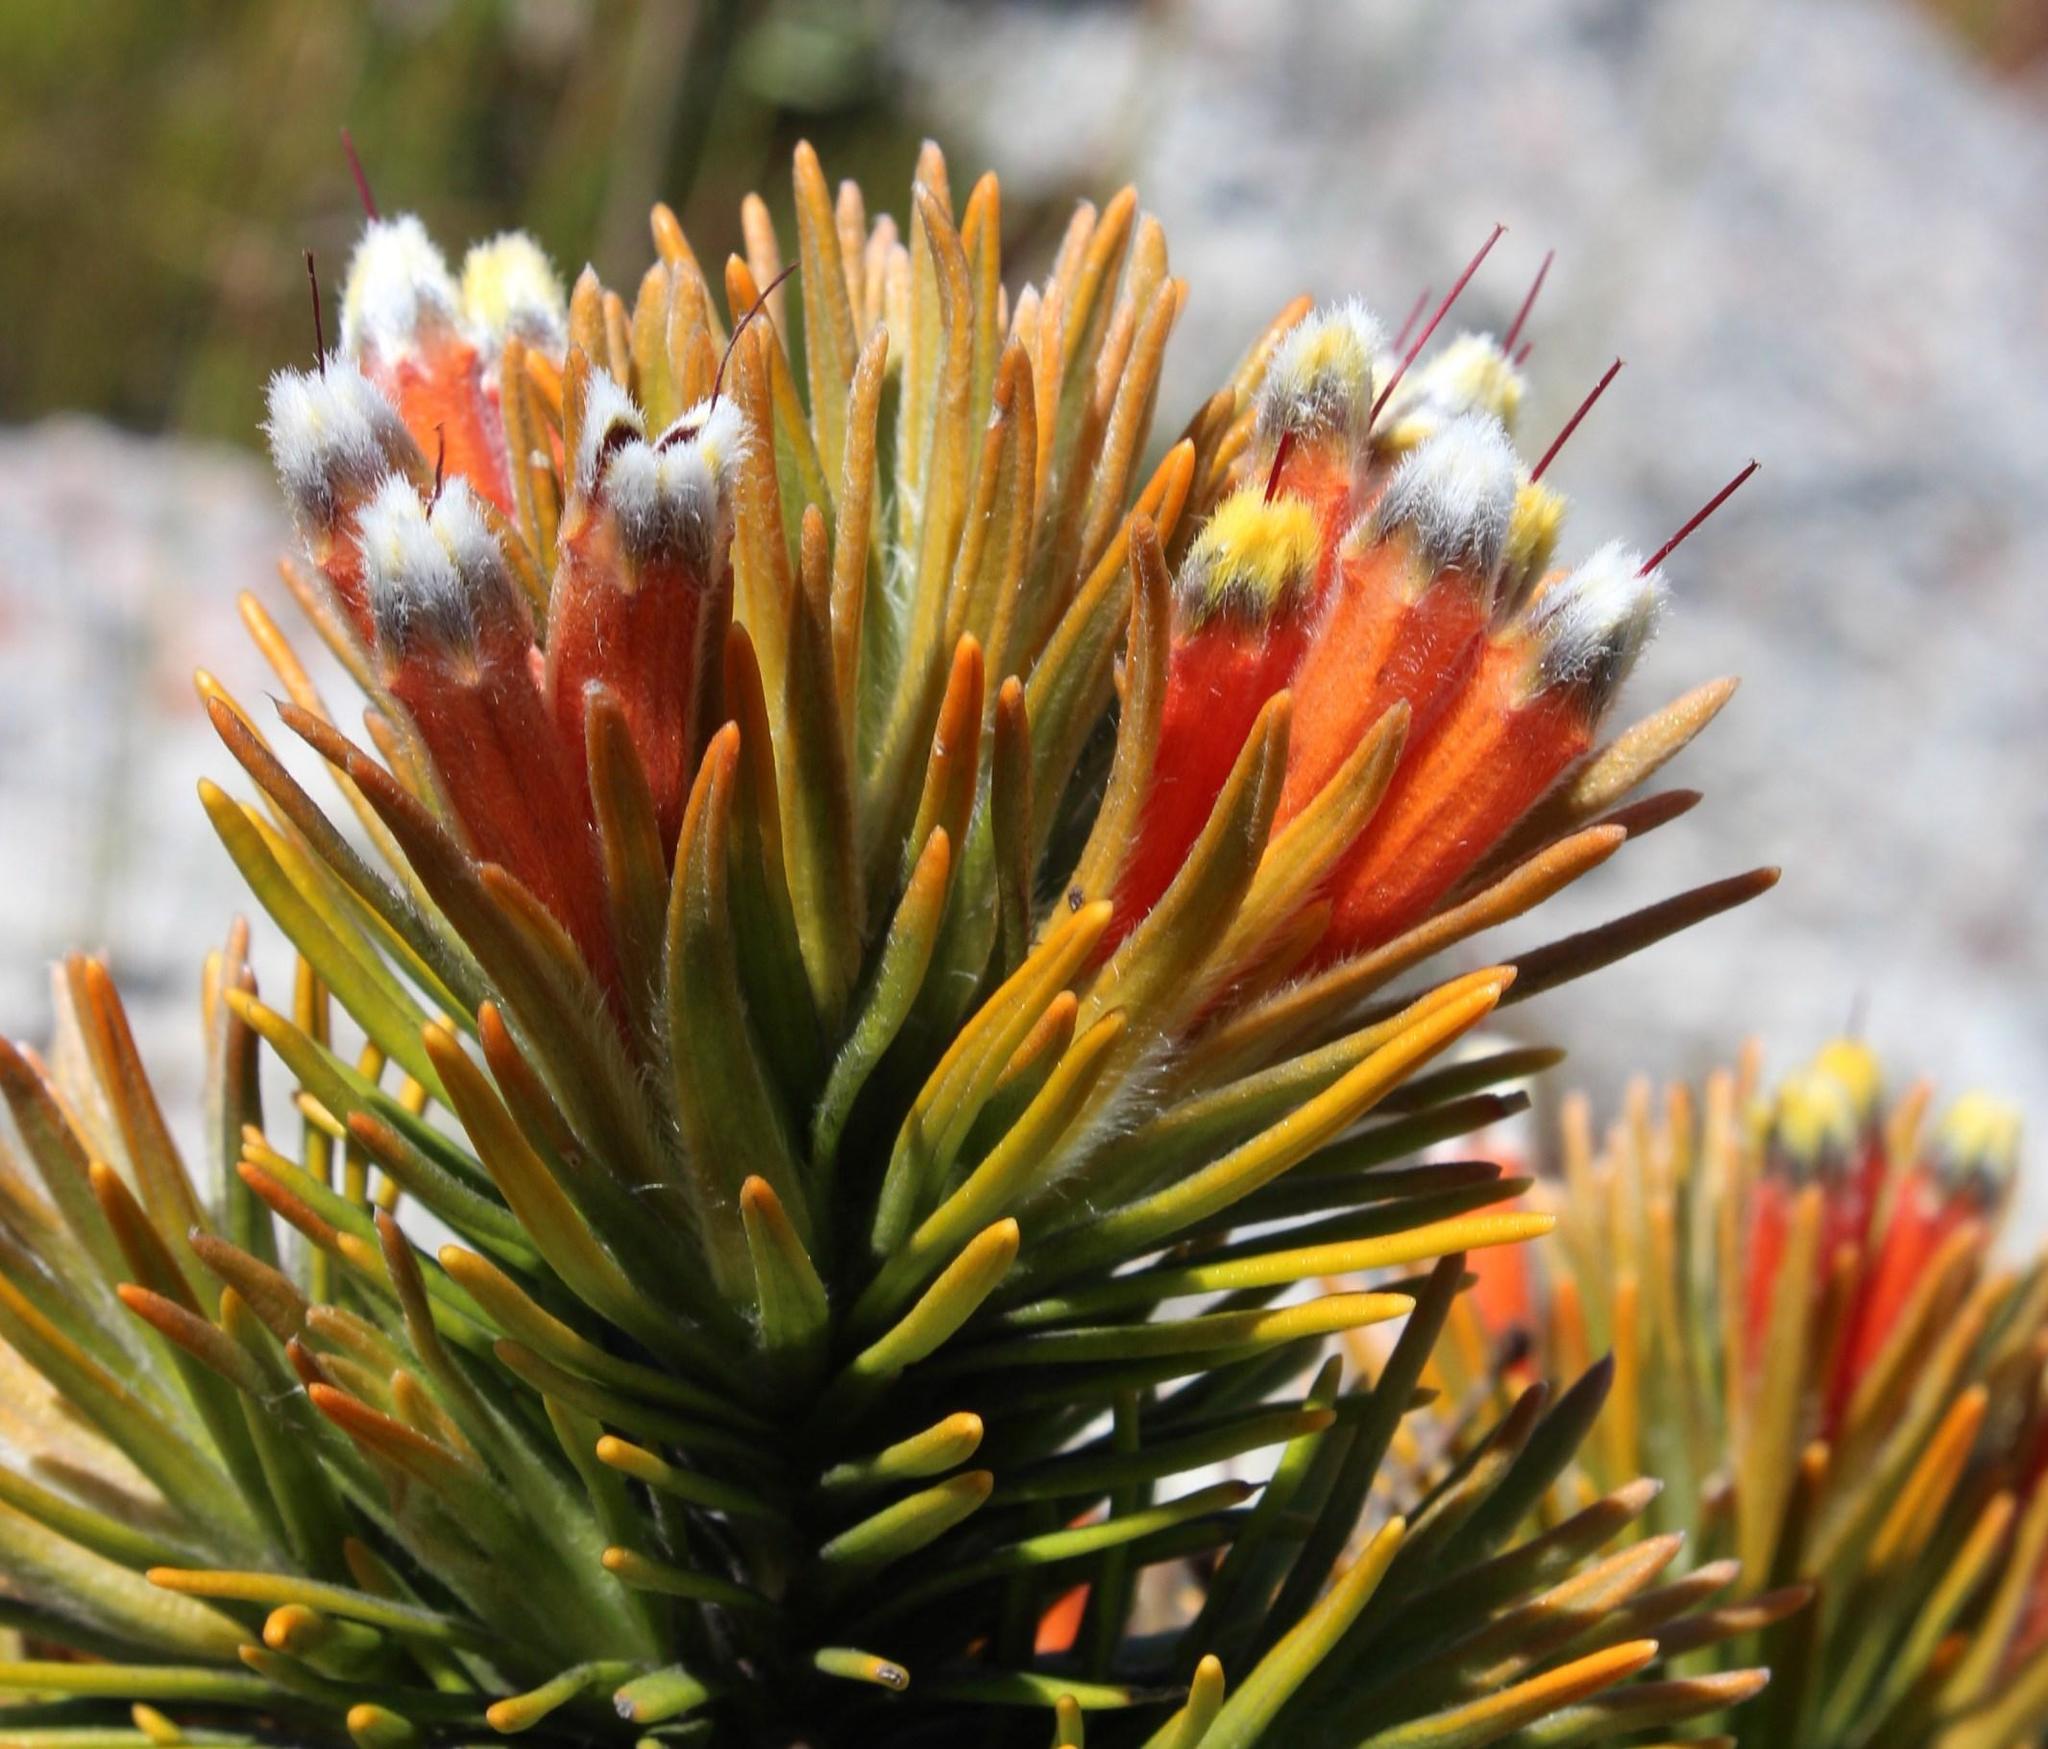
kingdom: Plantae
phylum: Tracheophyta
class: Magnoliopsida
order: Lamiales
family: Stilbaceae
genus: Retzia
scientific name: Retzia capensis
